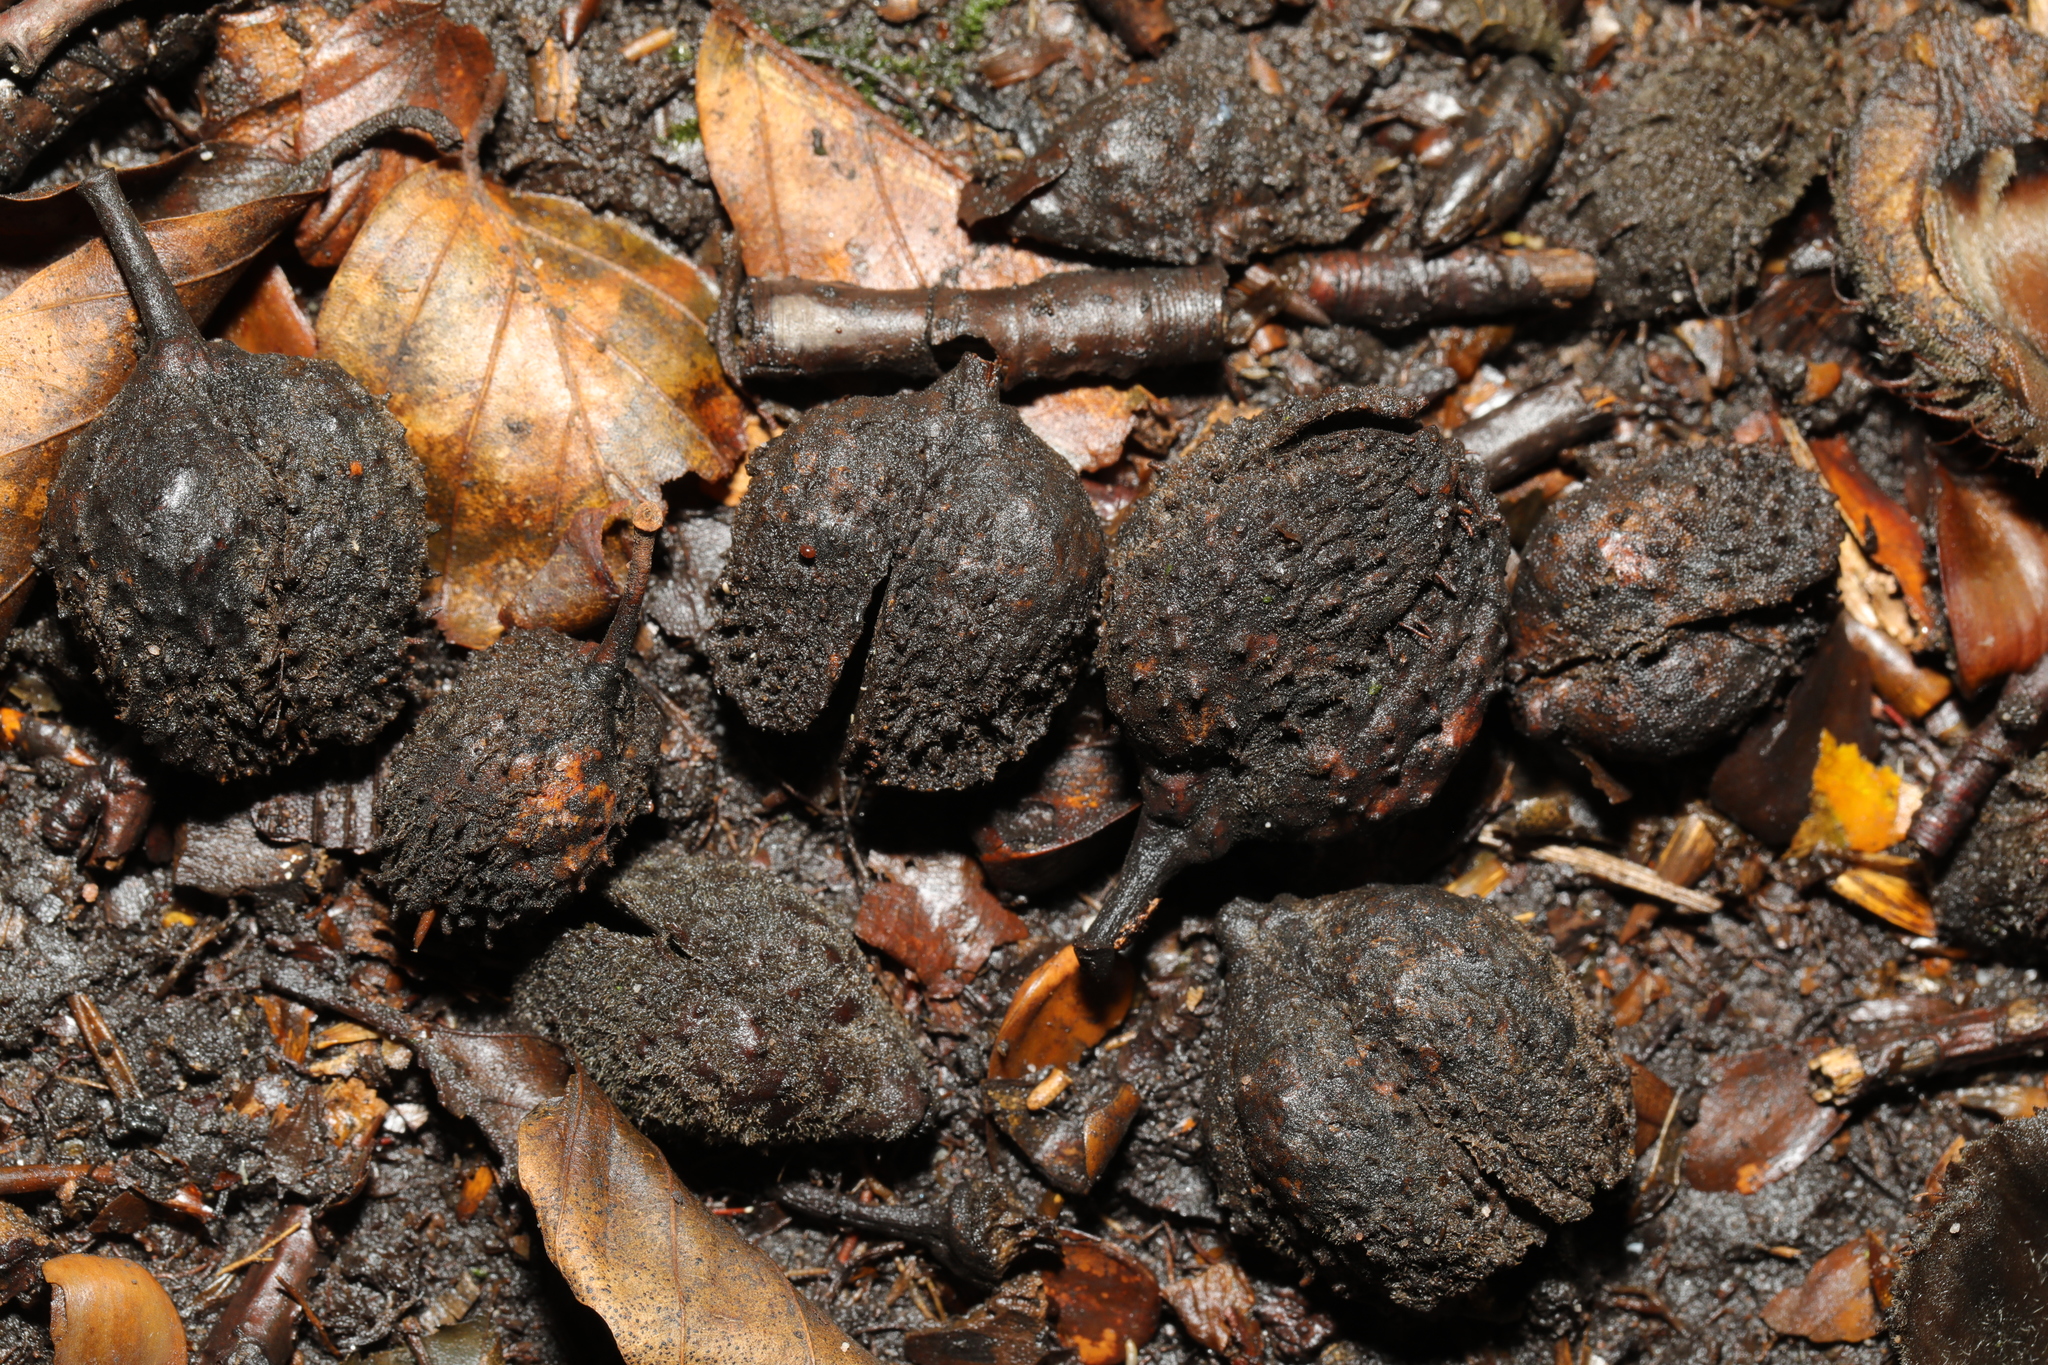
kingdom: Plantae
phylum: Tracheophyta
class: Magnoliopsida
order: Fagales
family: Fagaceae
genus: Fagus
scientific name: Fagus sylvatica
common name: Beech
